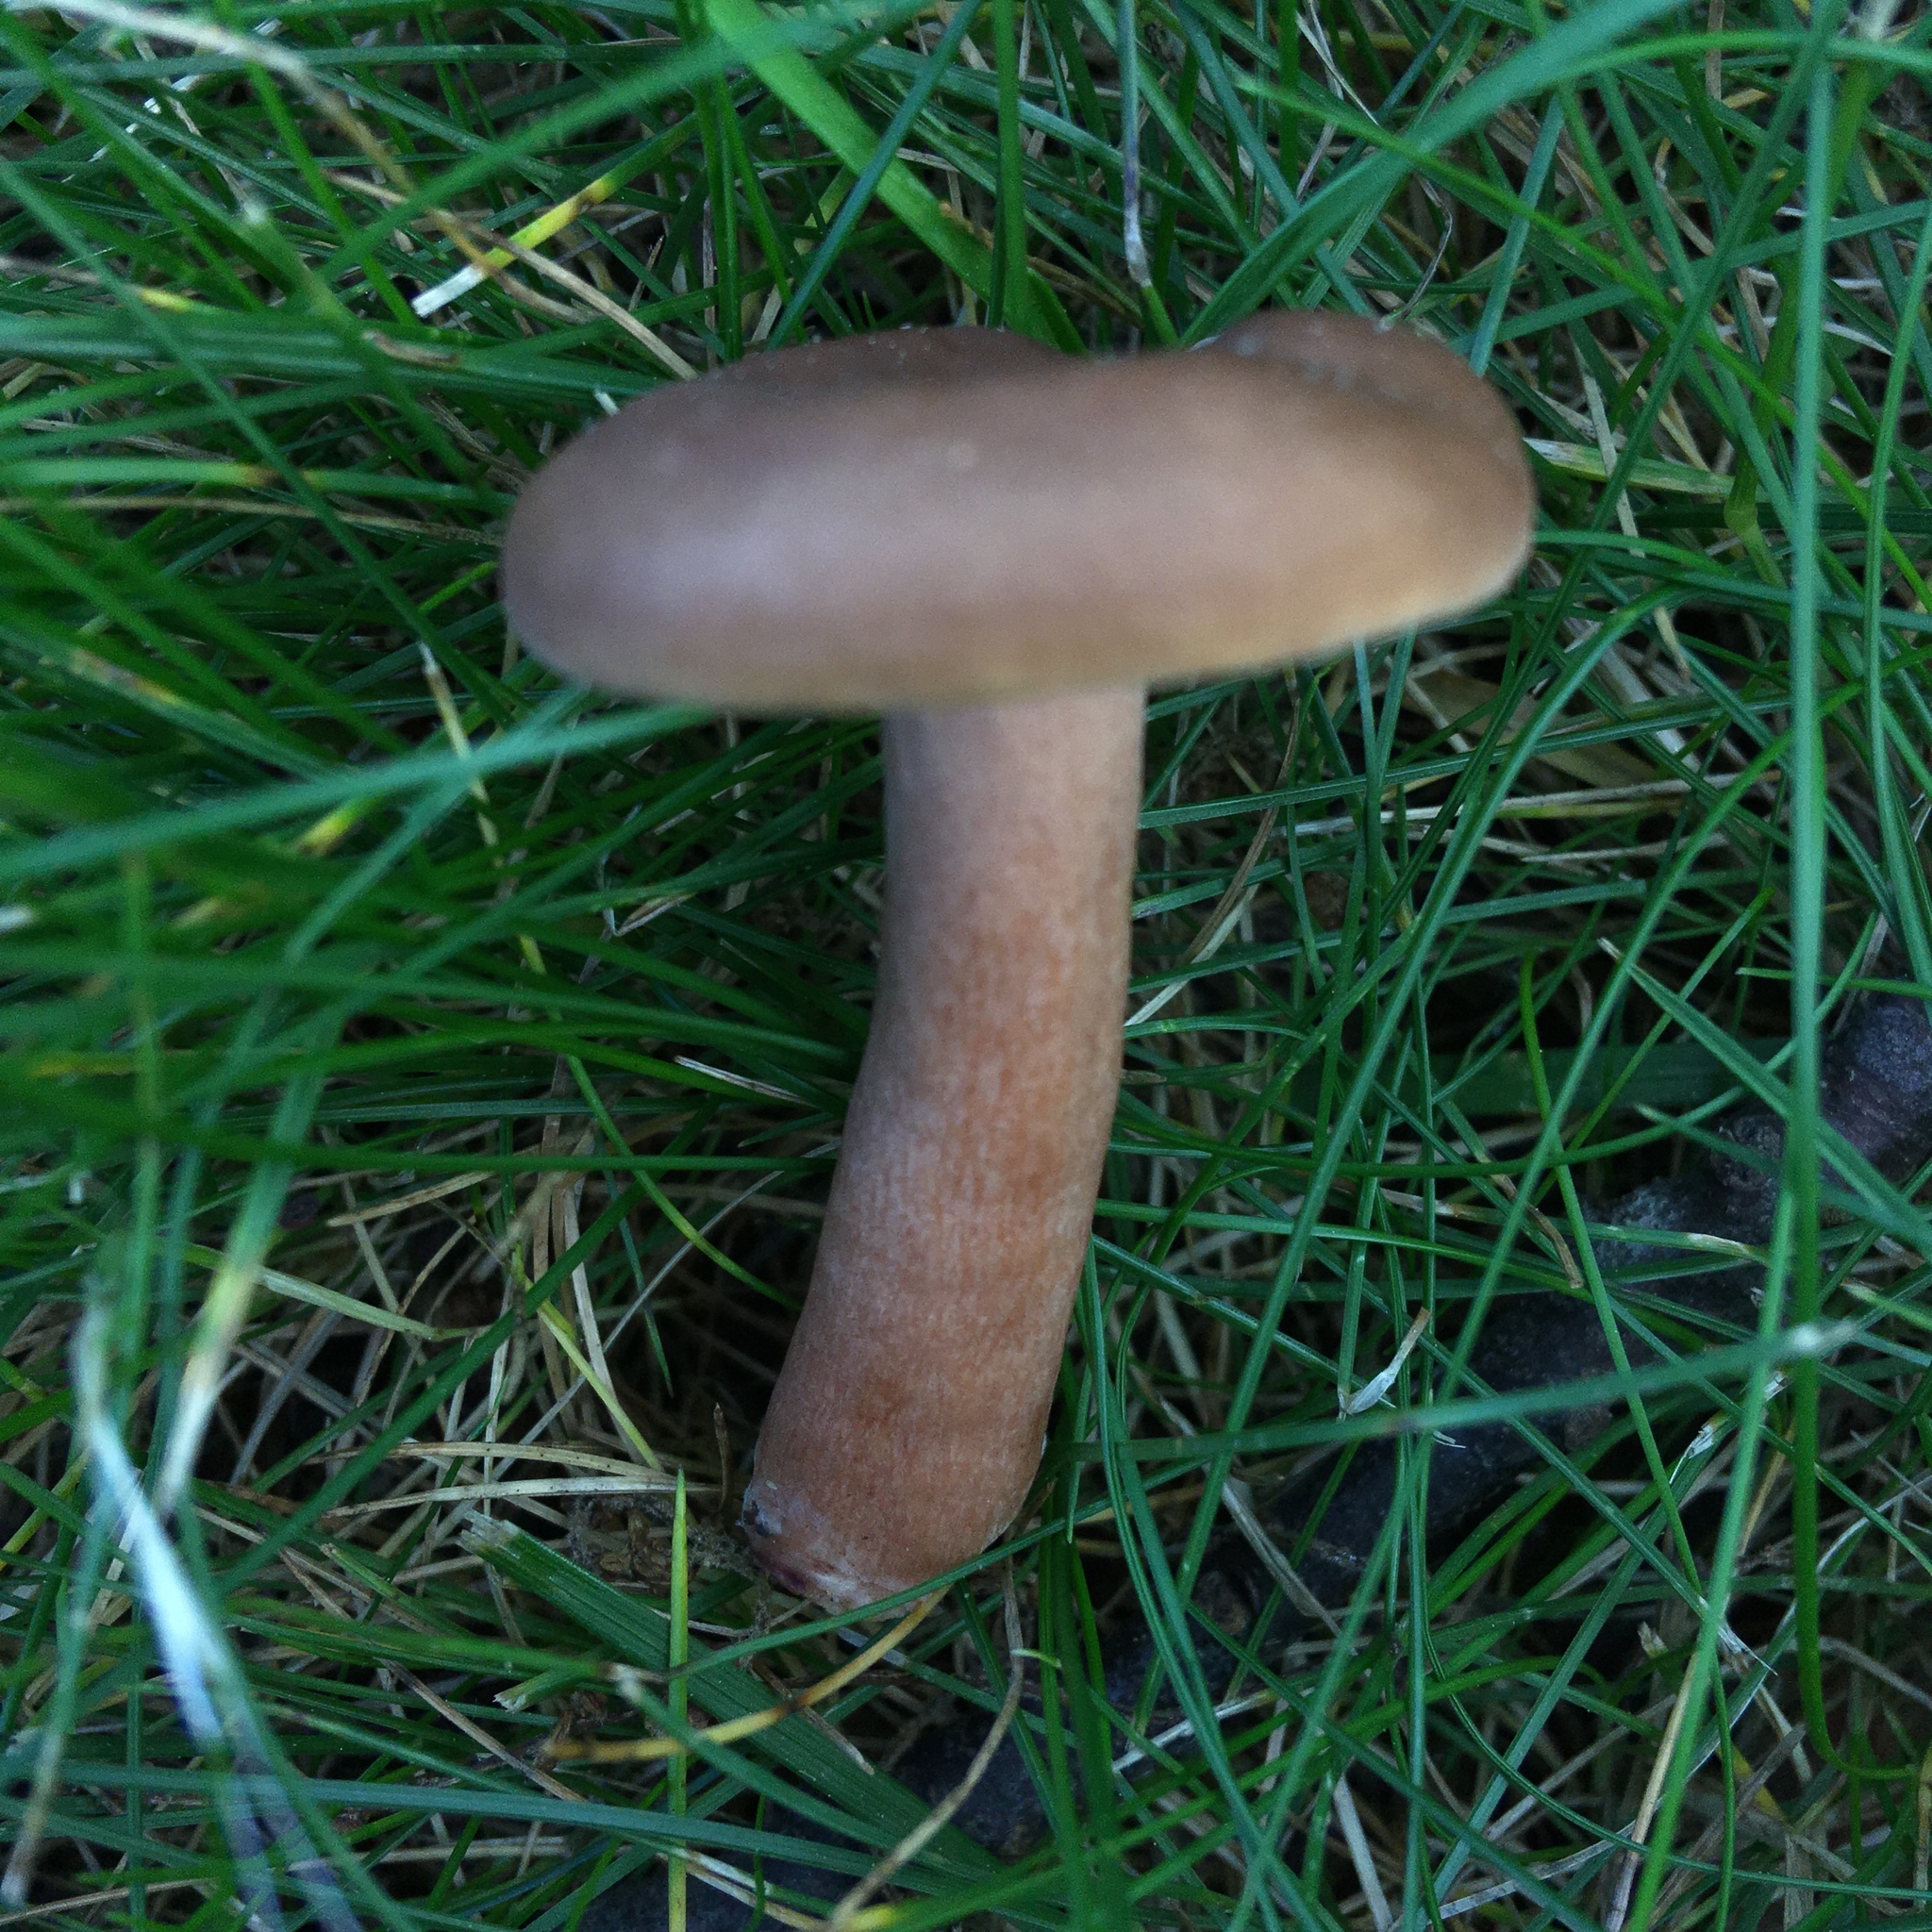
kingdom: Fungi
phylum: Basidiomycota
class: Agaricomycetes
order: Russulales
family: Russulaceae
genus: Lactarius
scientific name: Lactarius quietus
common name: Oak milk-cap
